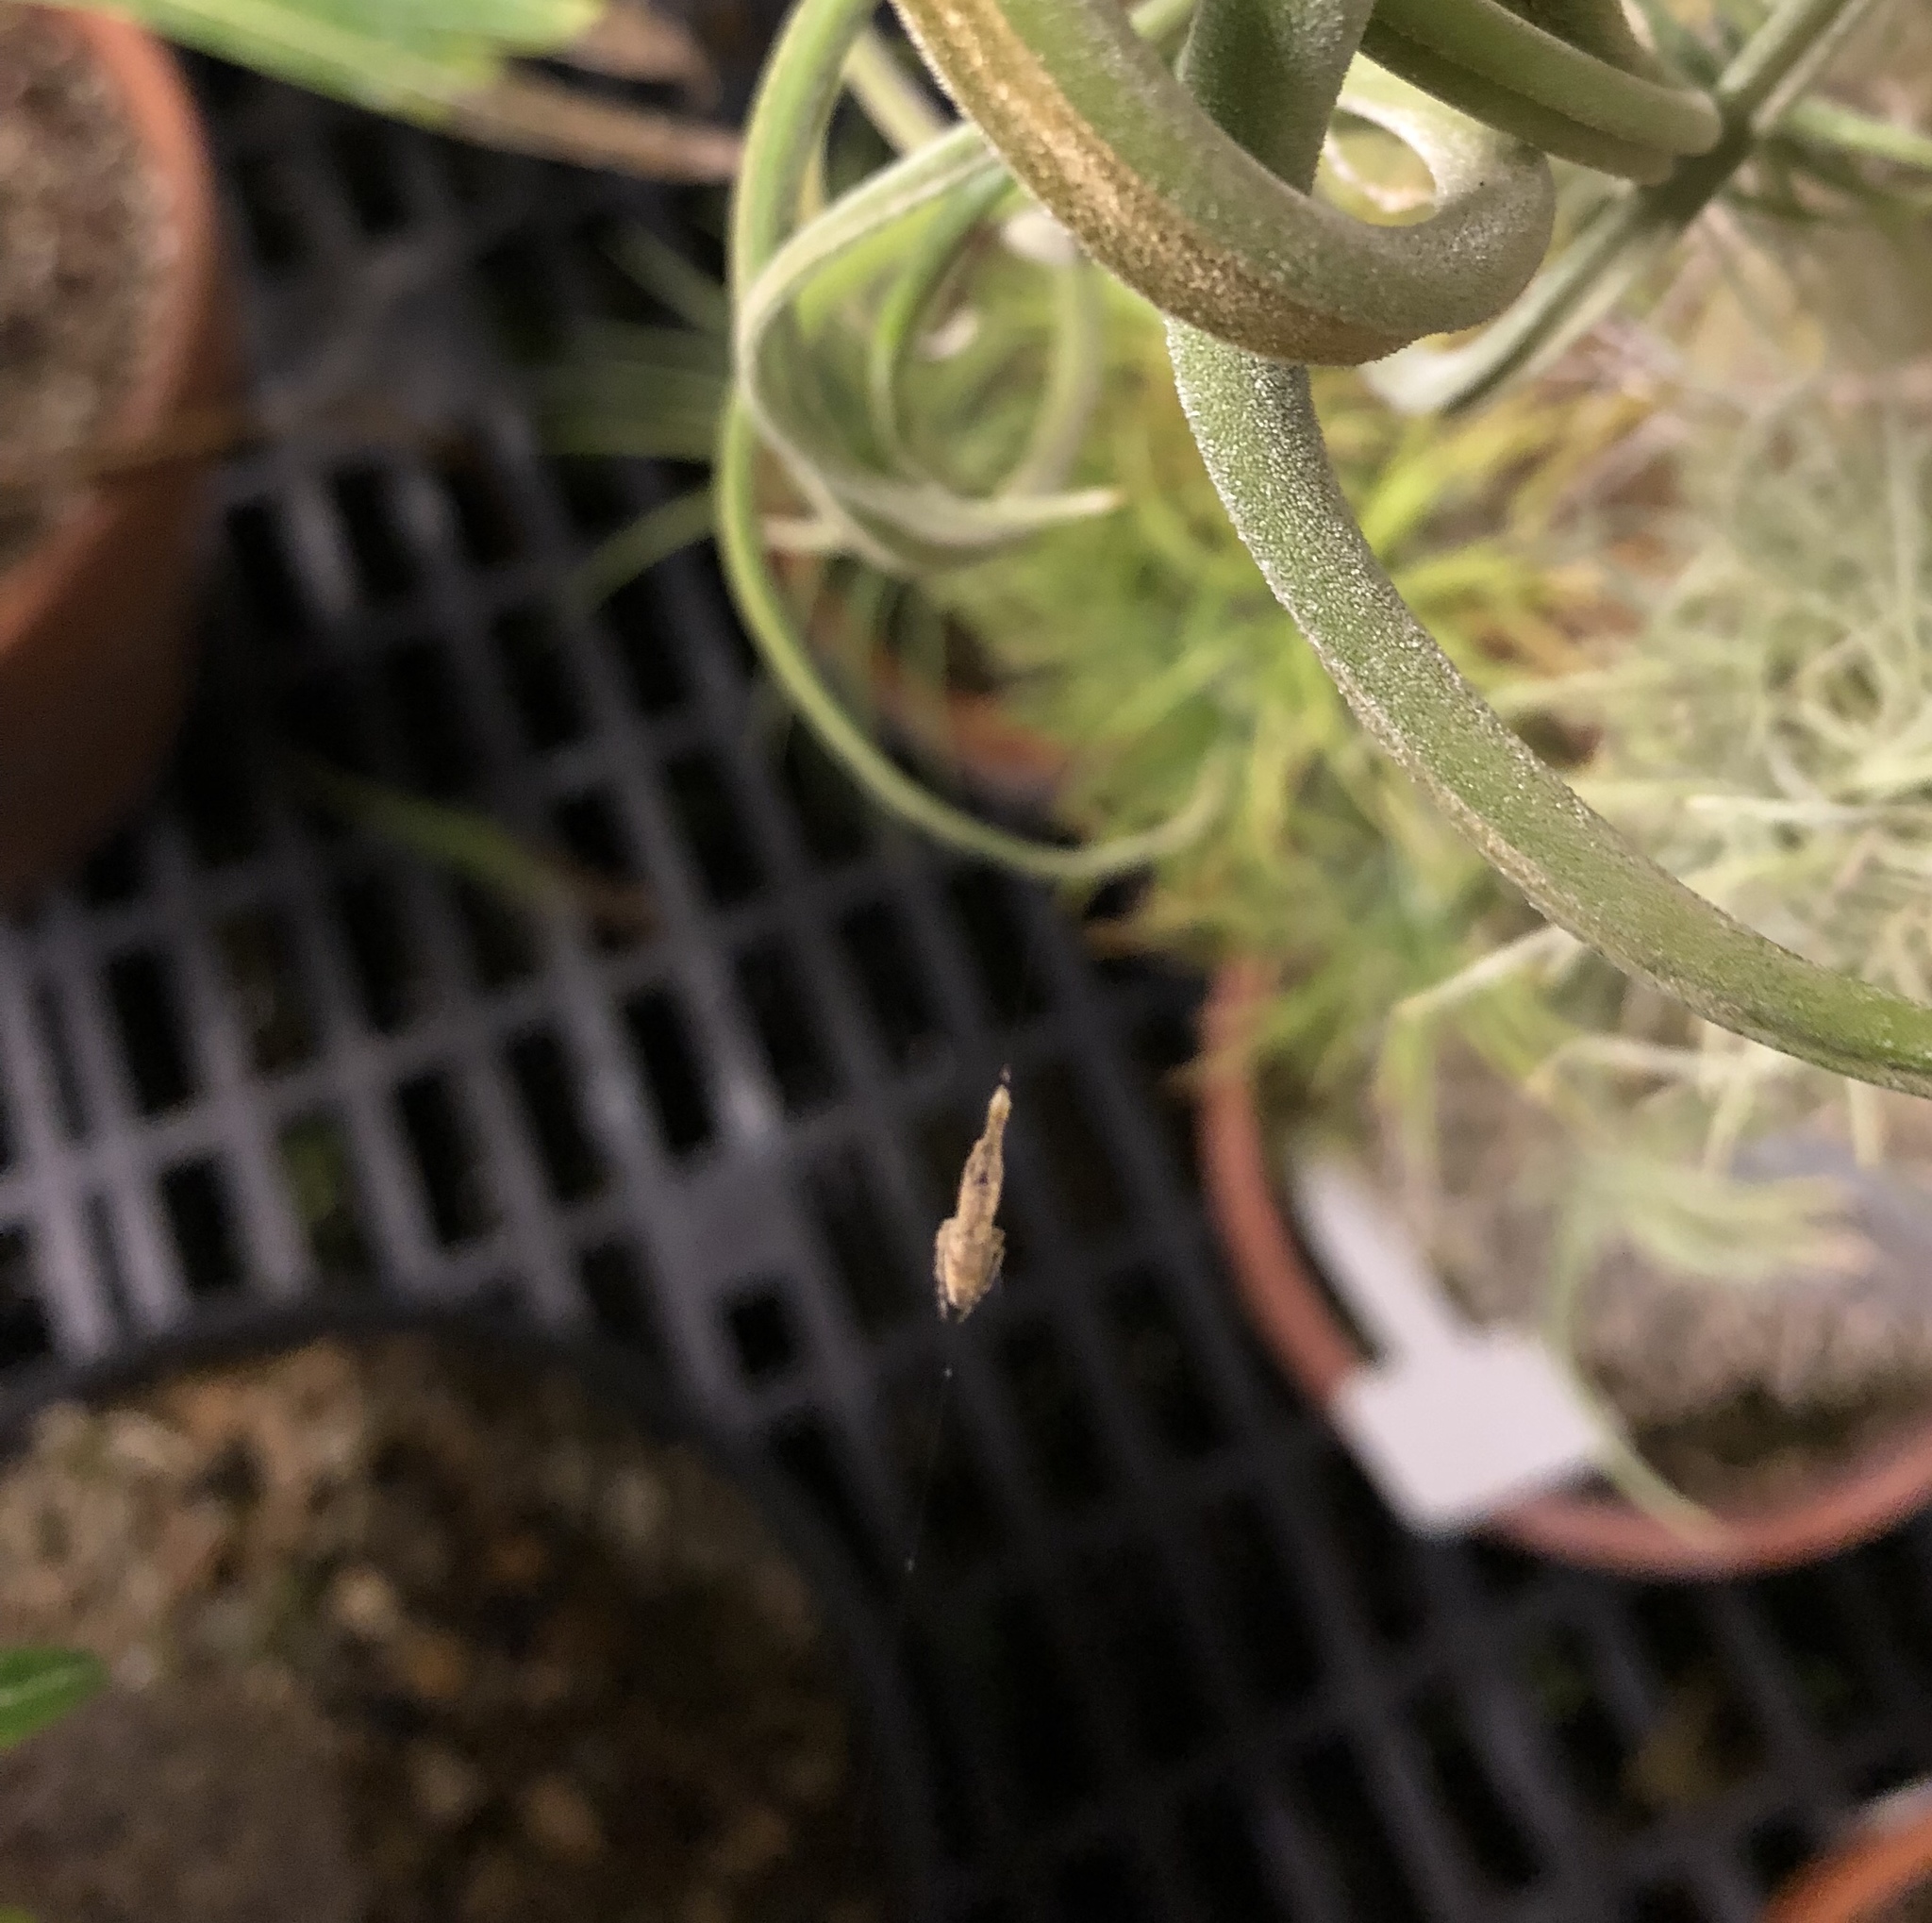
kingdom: Animalia
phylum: Arthropoda
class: Arachnida
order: Araneae
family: Uloboridae
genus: Uloborus
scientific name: Uloborus diversus
